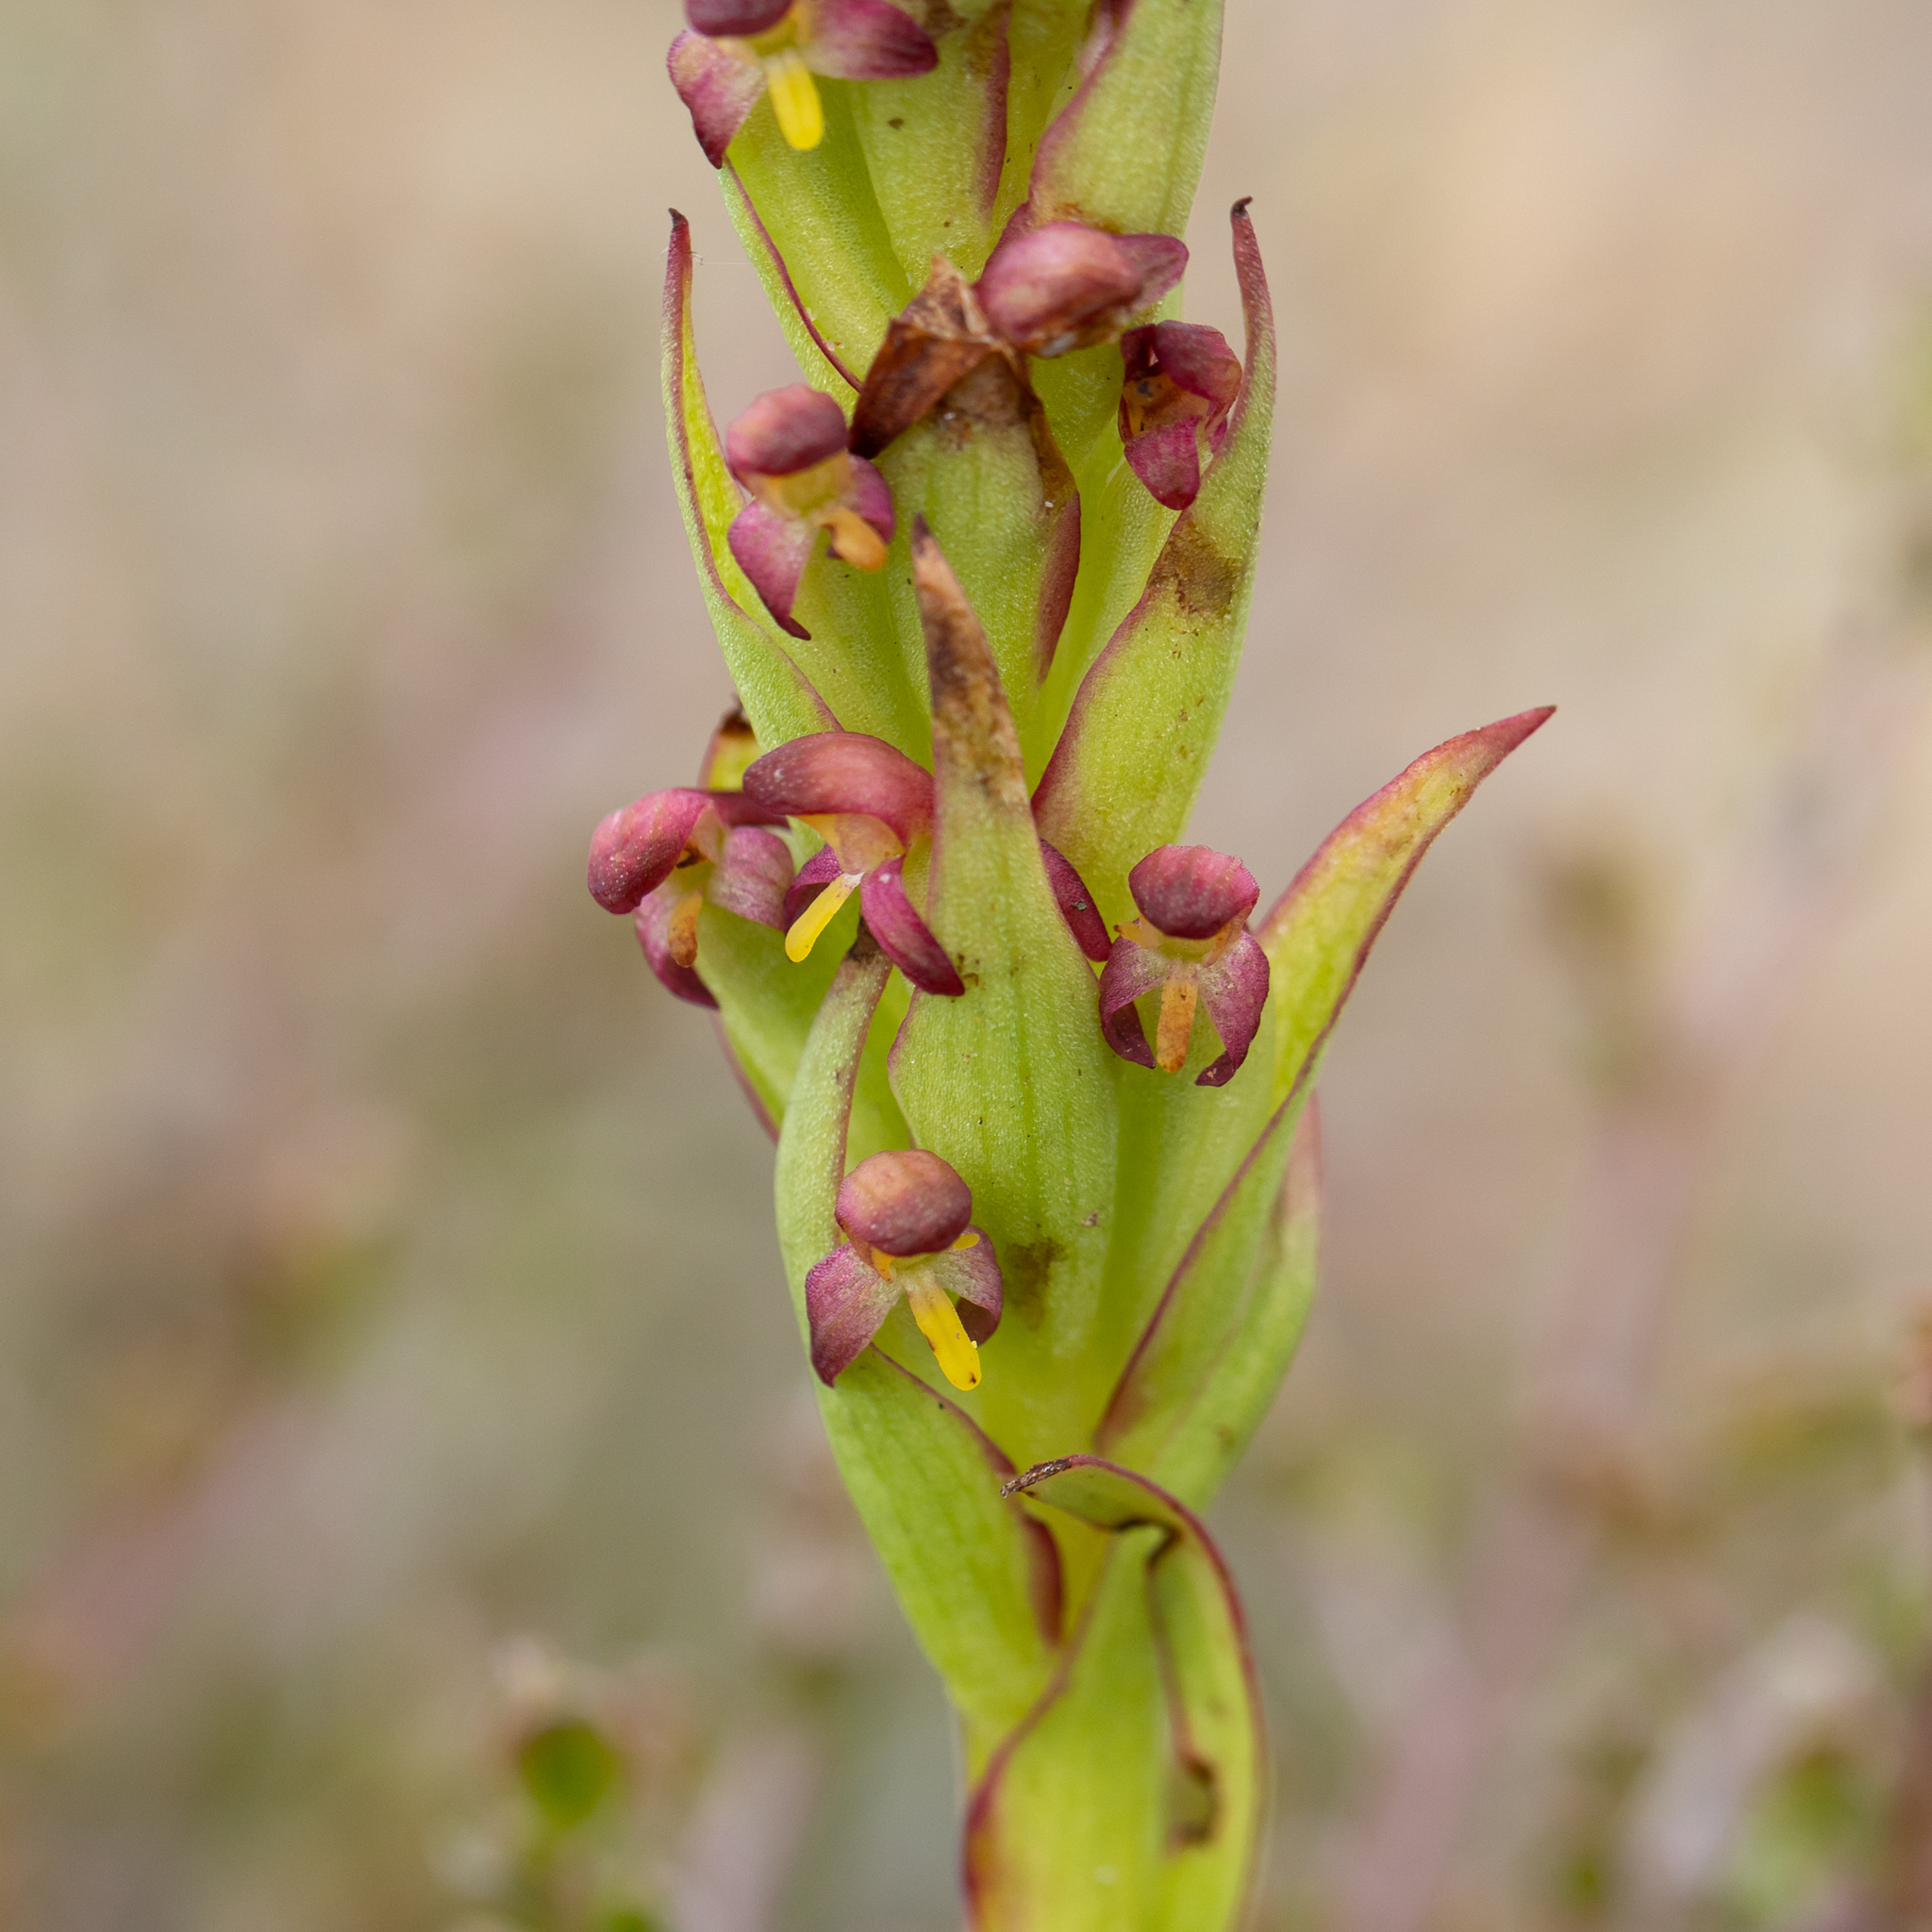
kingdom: Plantae
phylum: Tracheophyta
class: Liliopsida
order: Asparagales
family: Orchidaceae
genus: Disa
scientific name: Disa bracteata
